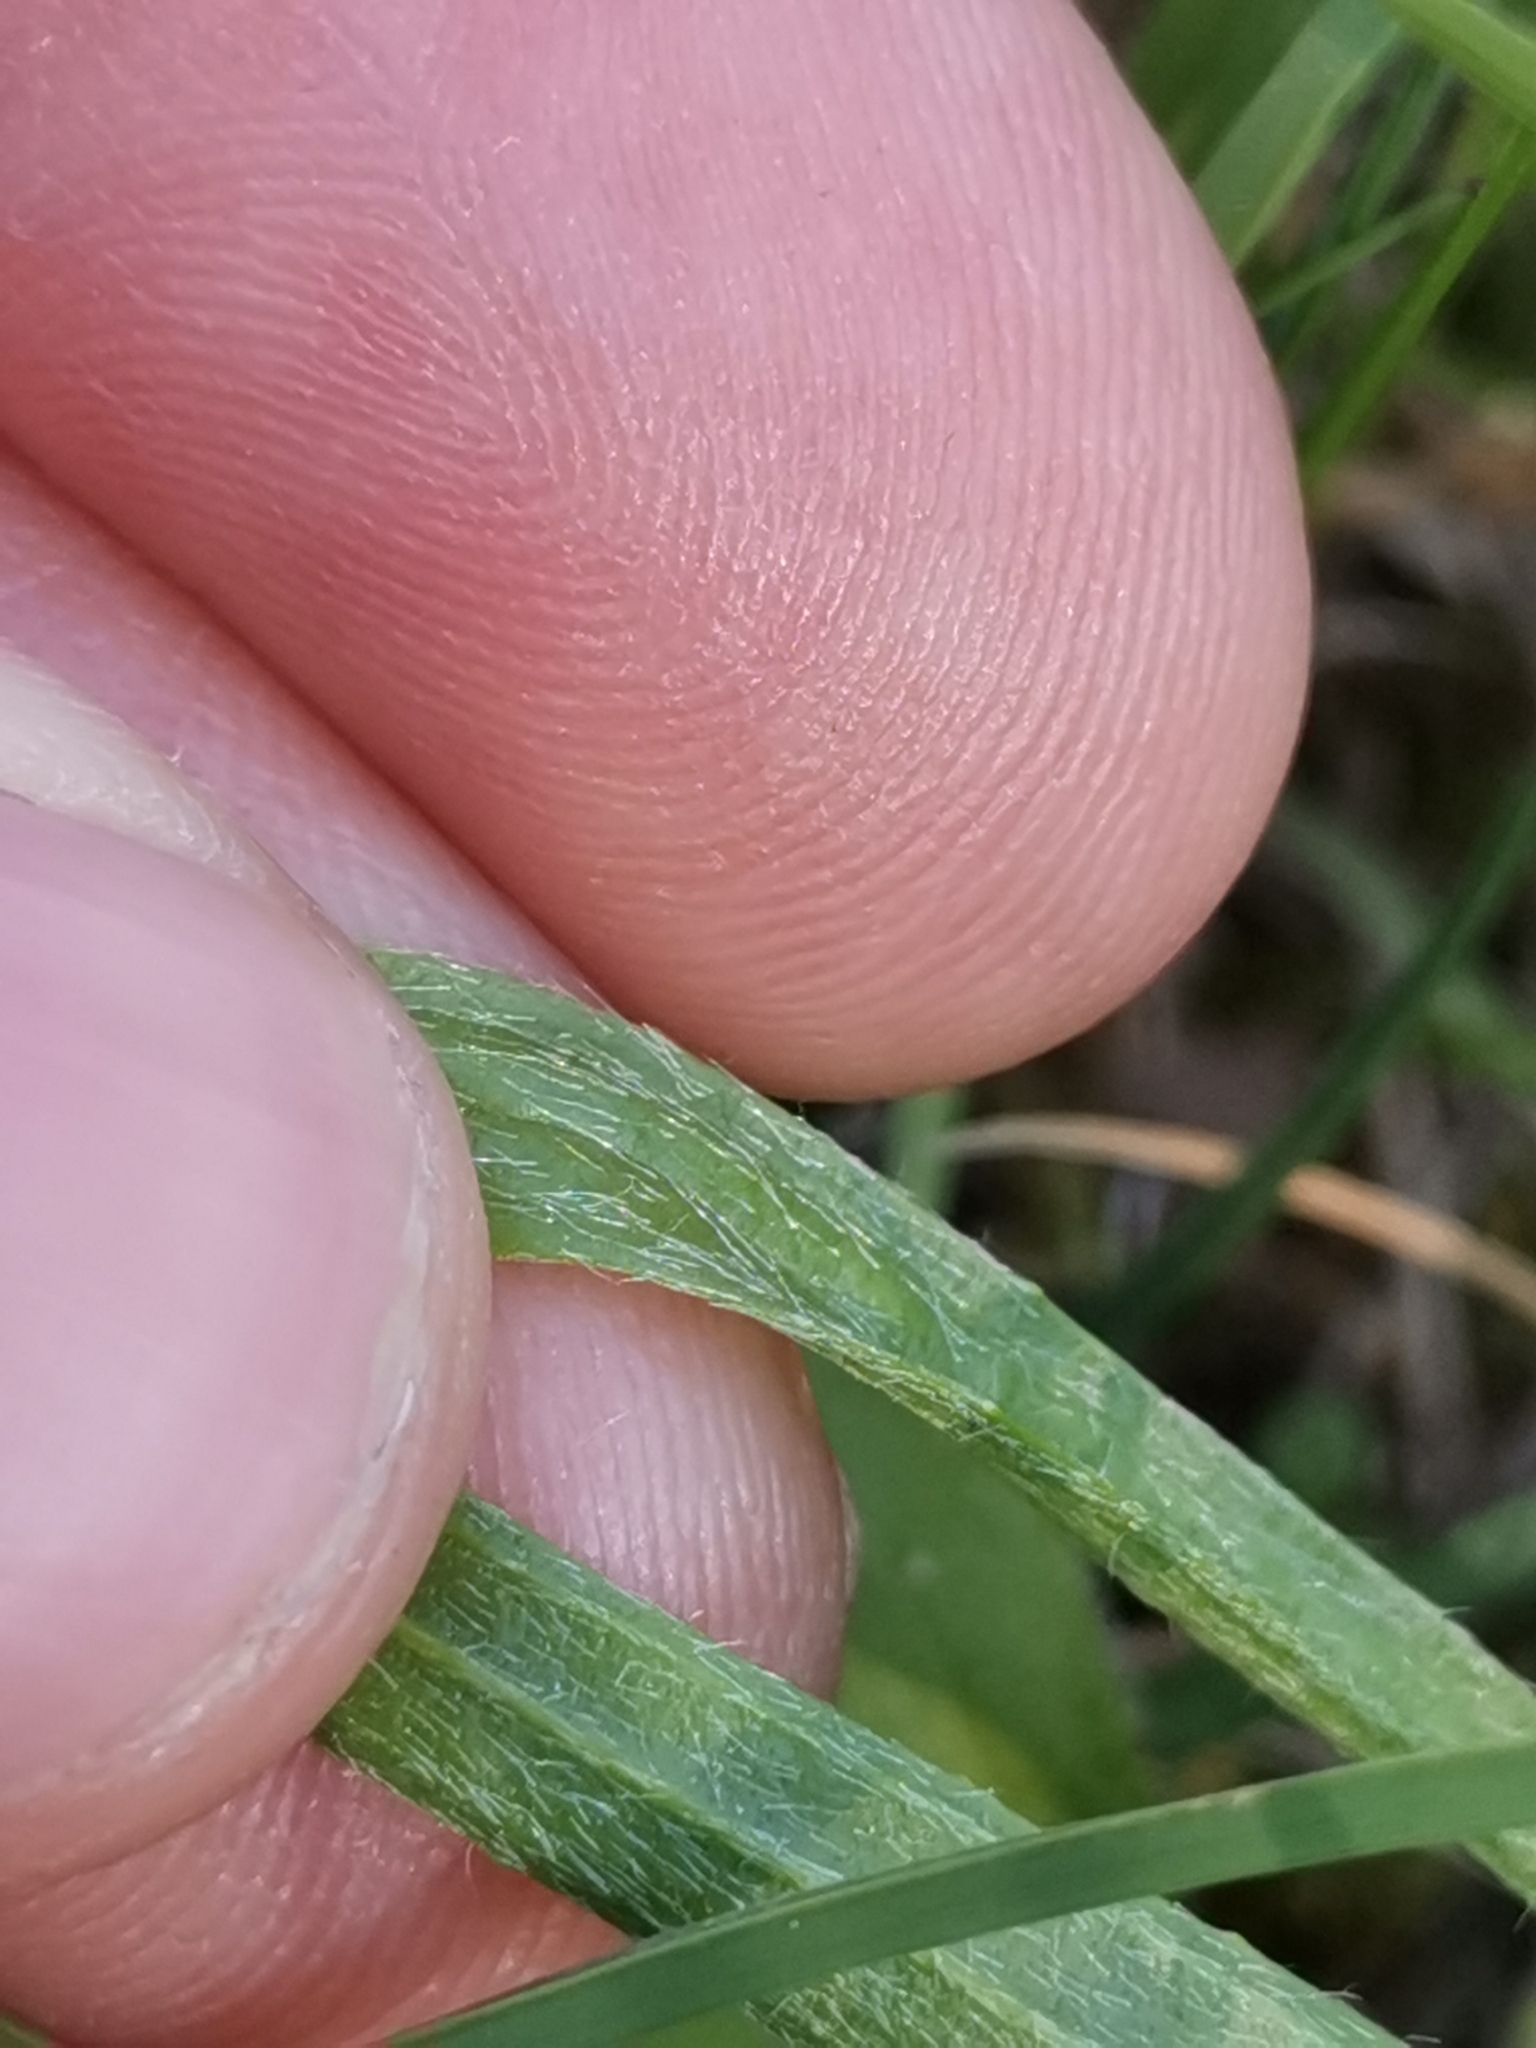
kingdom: Plantae
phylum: Tracheophyta
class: Magnoliopsida
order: Lamiales
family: Plantaginaceae
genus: Plantago
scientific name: Plantago argentea
